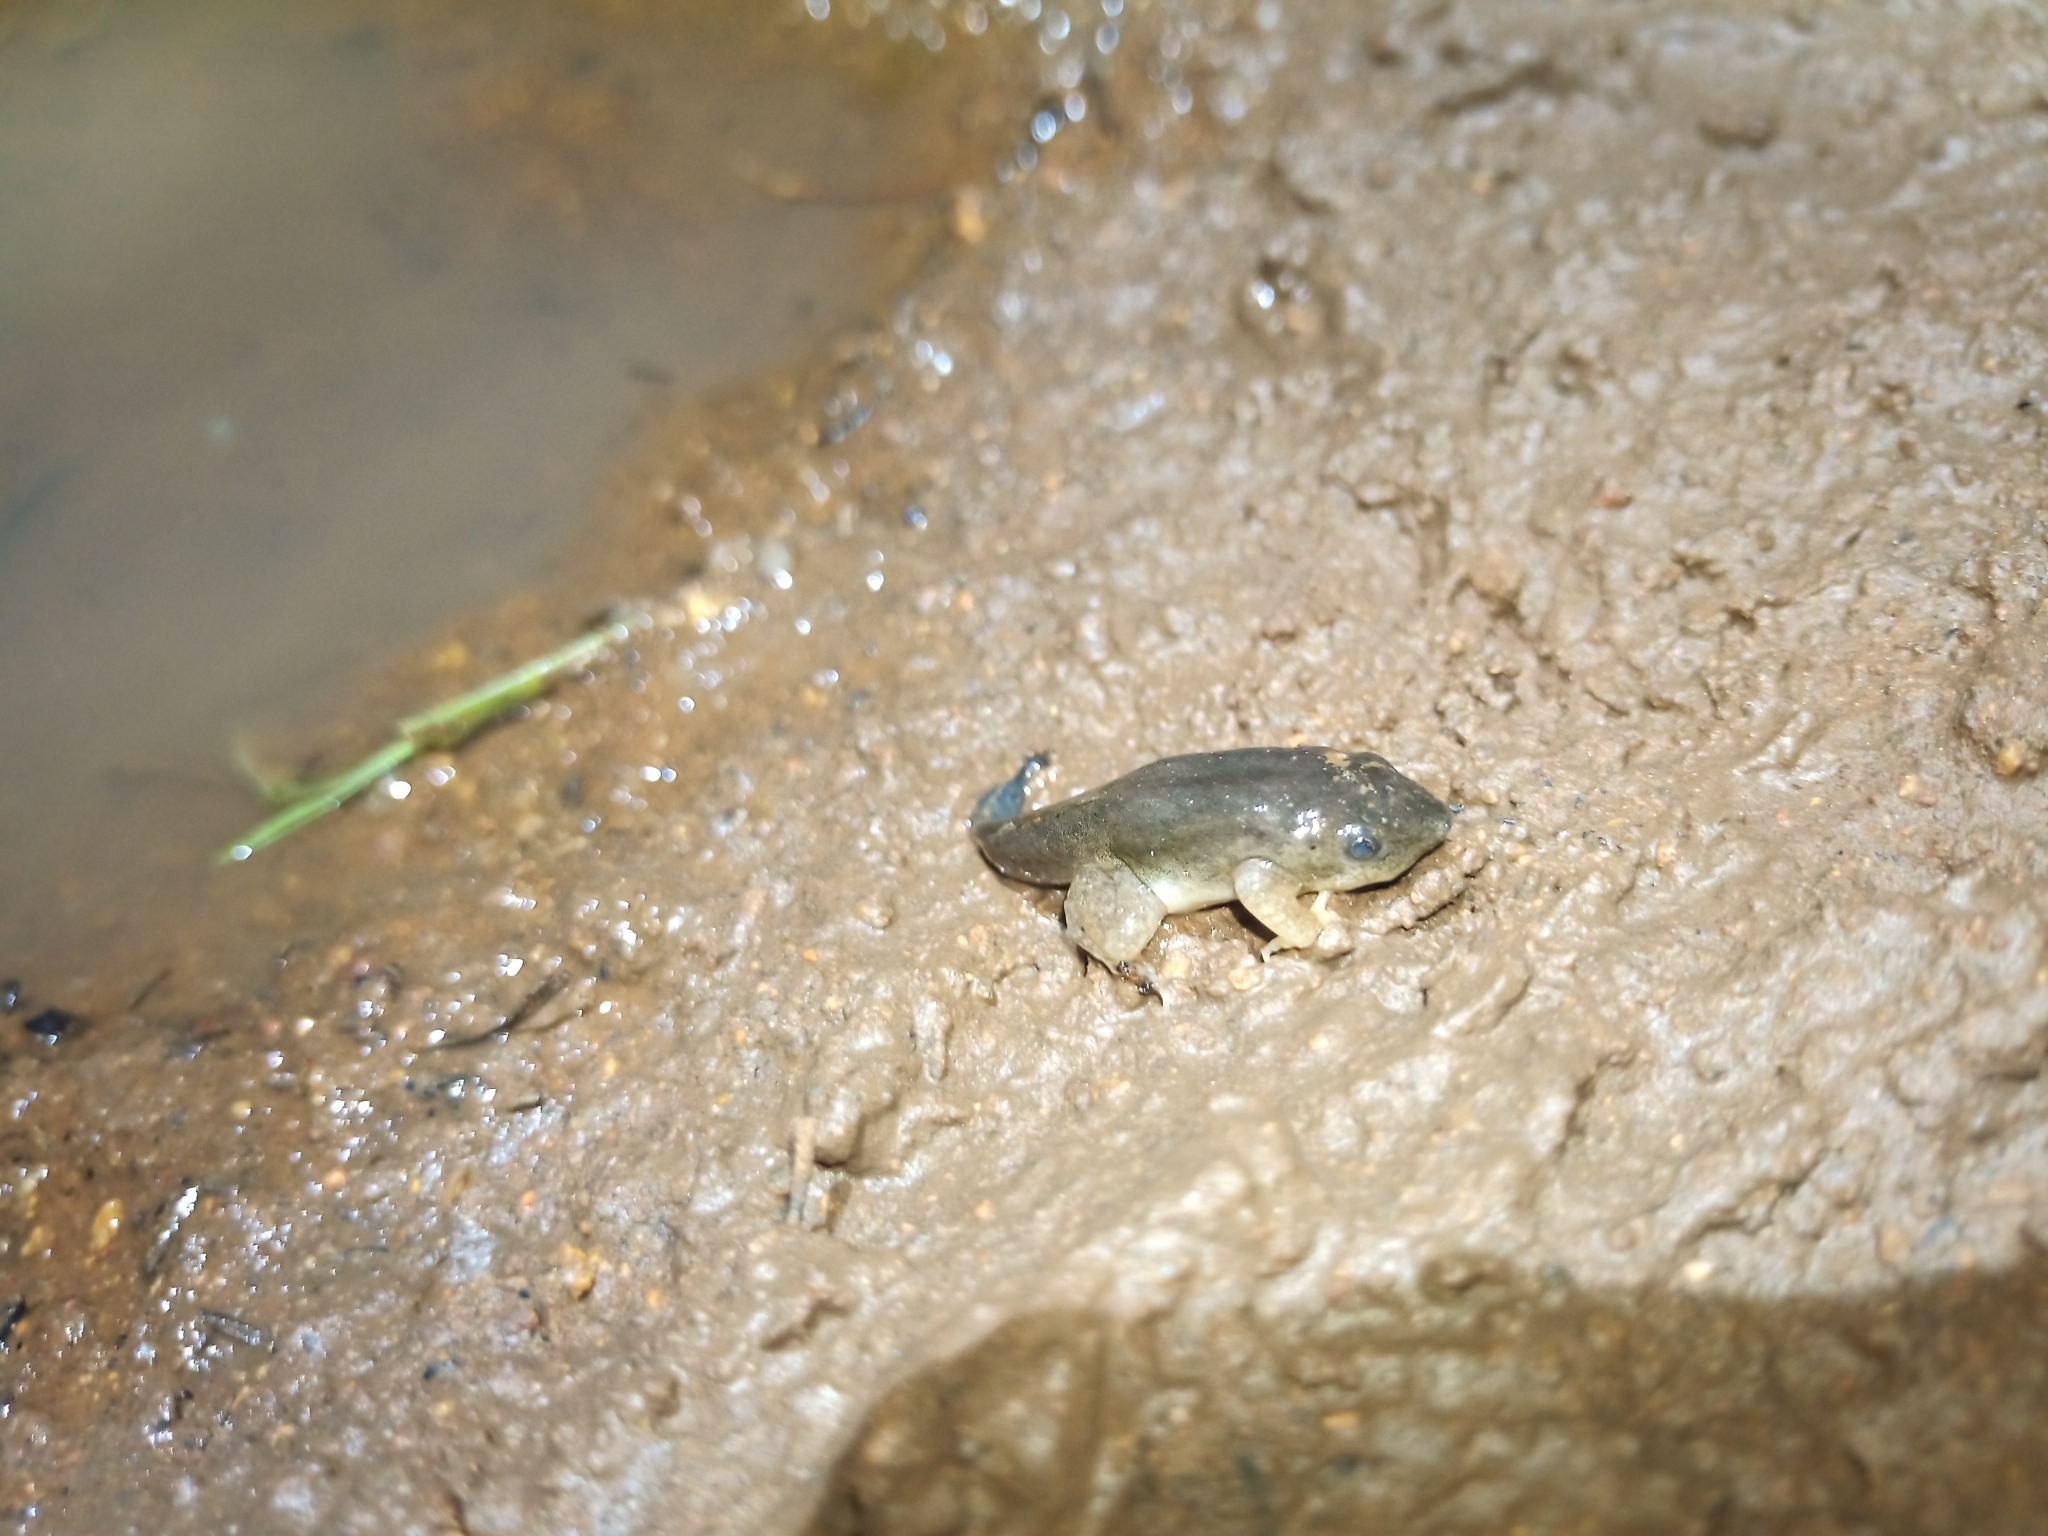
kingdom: Animalia
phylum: Chordata
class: Amphibia
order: Anura
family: Hemisotidae
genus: Hemisus
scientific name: Hemisus marmoratus
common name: Mottled shovel-nosed frog
